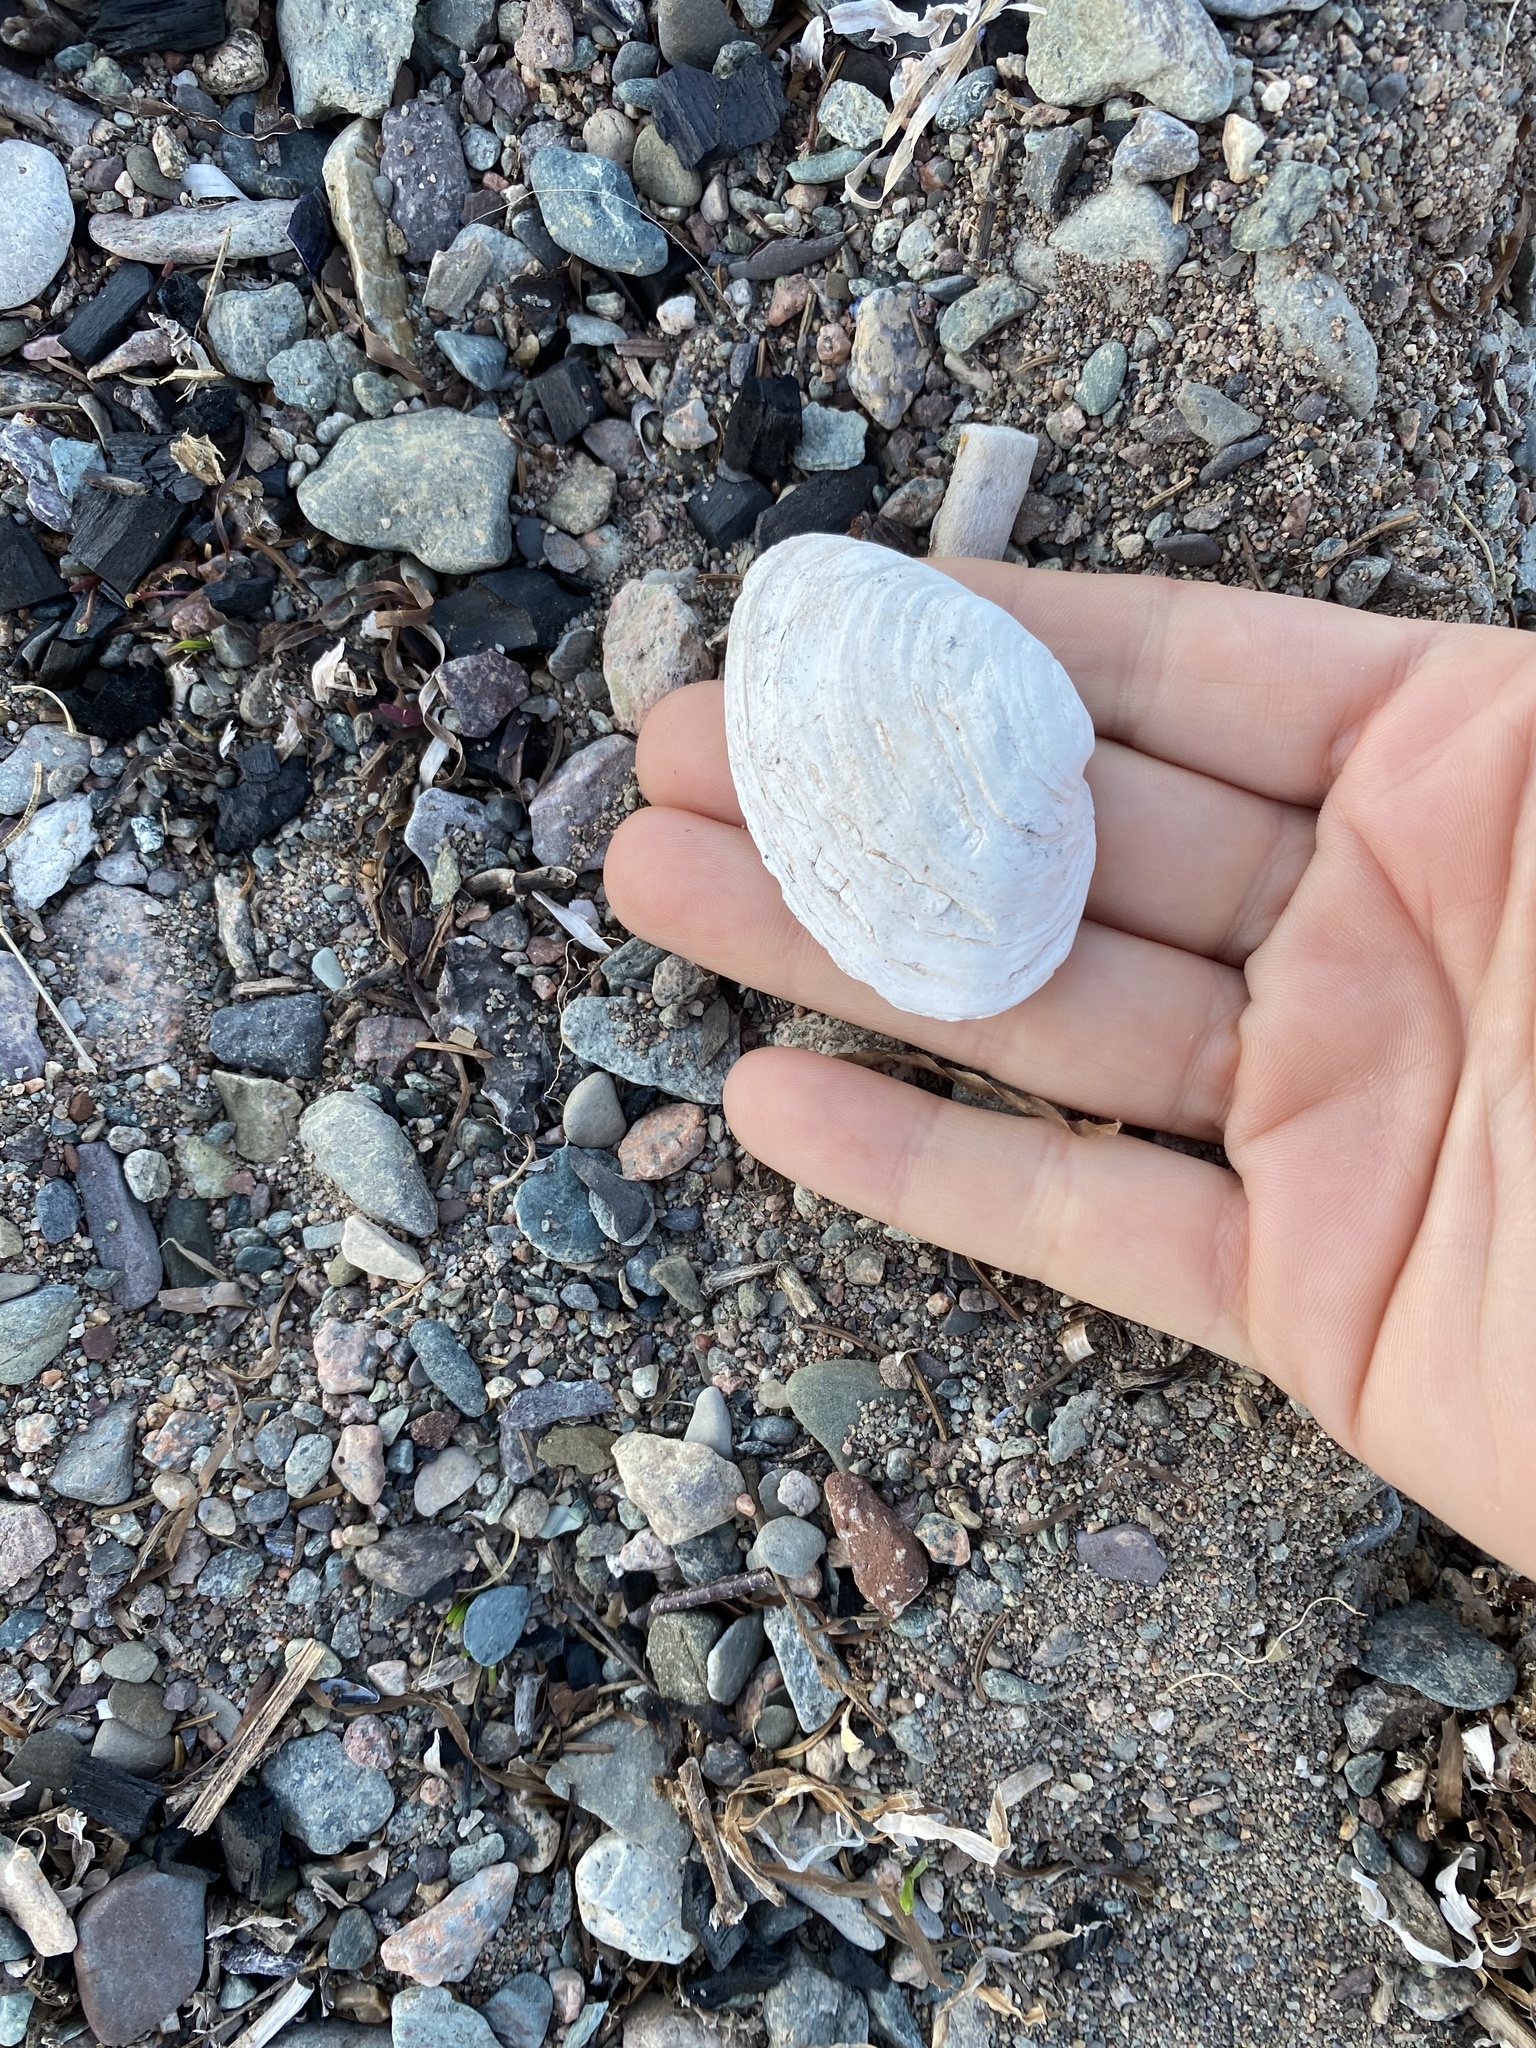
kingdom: Animalia
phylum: Mollusca
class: Bivalvia
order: Myida
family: Myidae
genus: Mya
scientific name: Mya arenaria
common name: Soft-shelled clam
